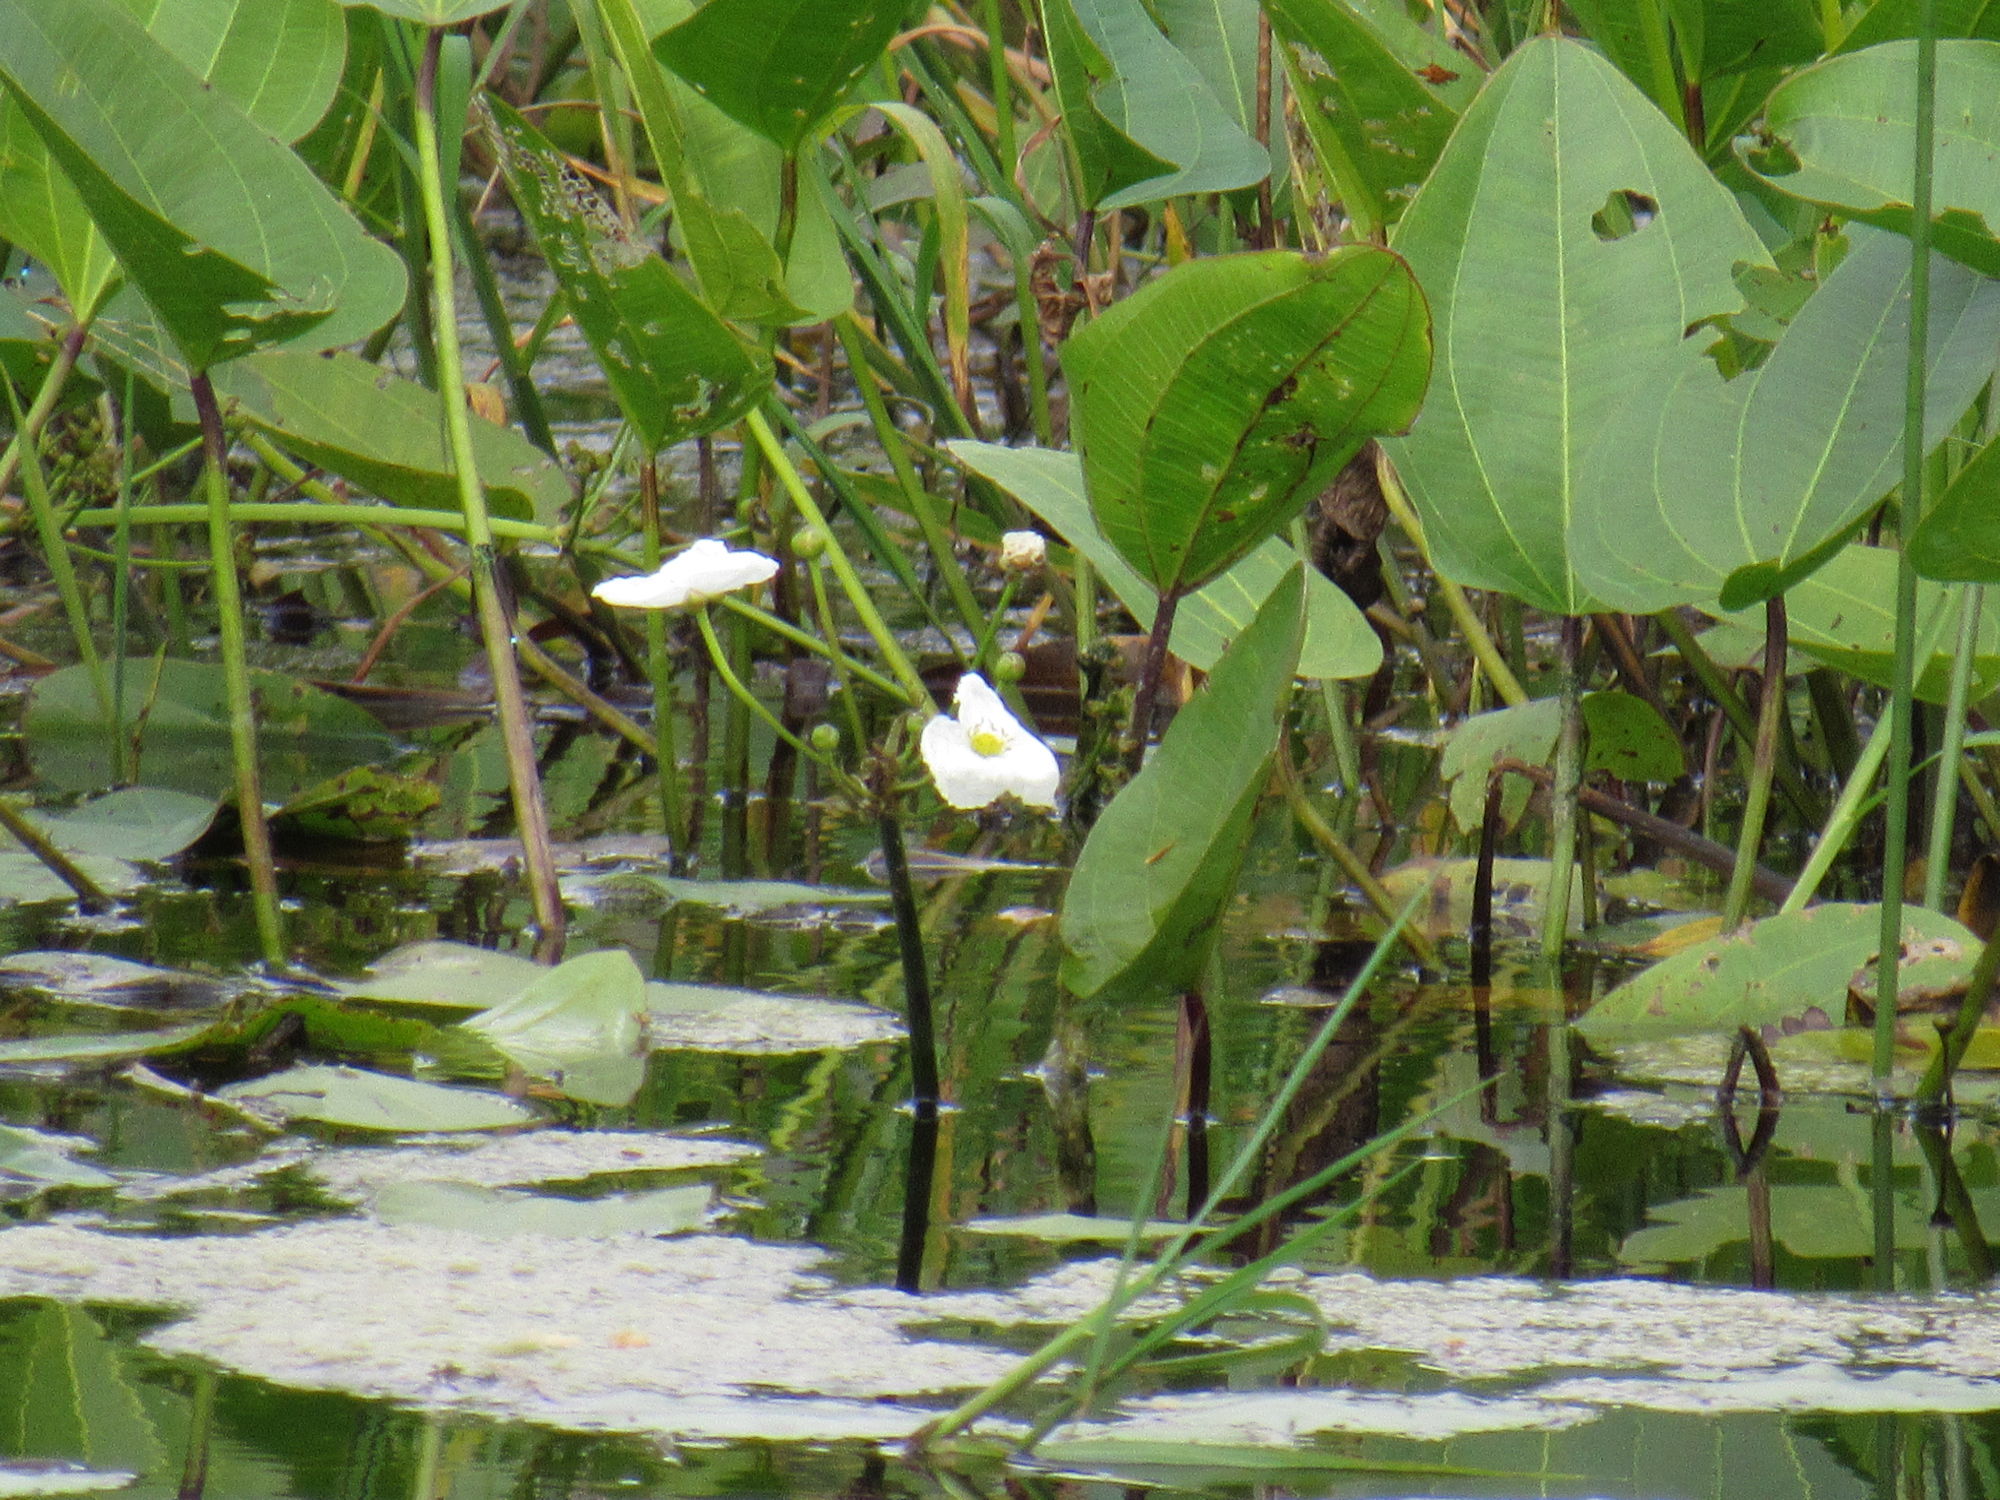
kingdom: Plantae
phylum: Tracheophyta
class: Liliopsida
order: Alismatales
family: Alismataceae
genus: Aquarius
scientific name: Aquarius cordifolius
